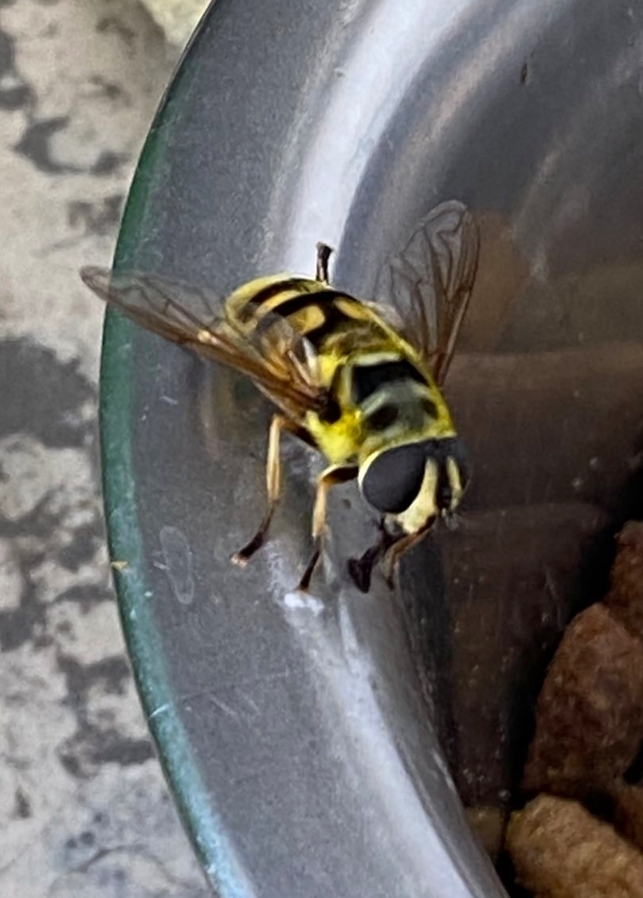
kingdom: Animalia
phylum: Arthropoda
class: Insecta
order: Diptera
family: Syrphidae
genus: Myathropa
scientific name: Myathropa florea
